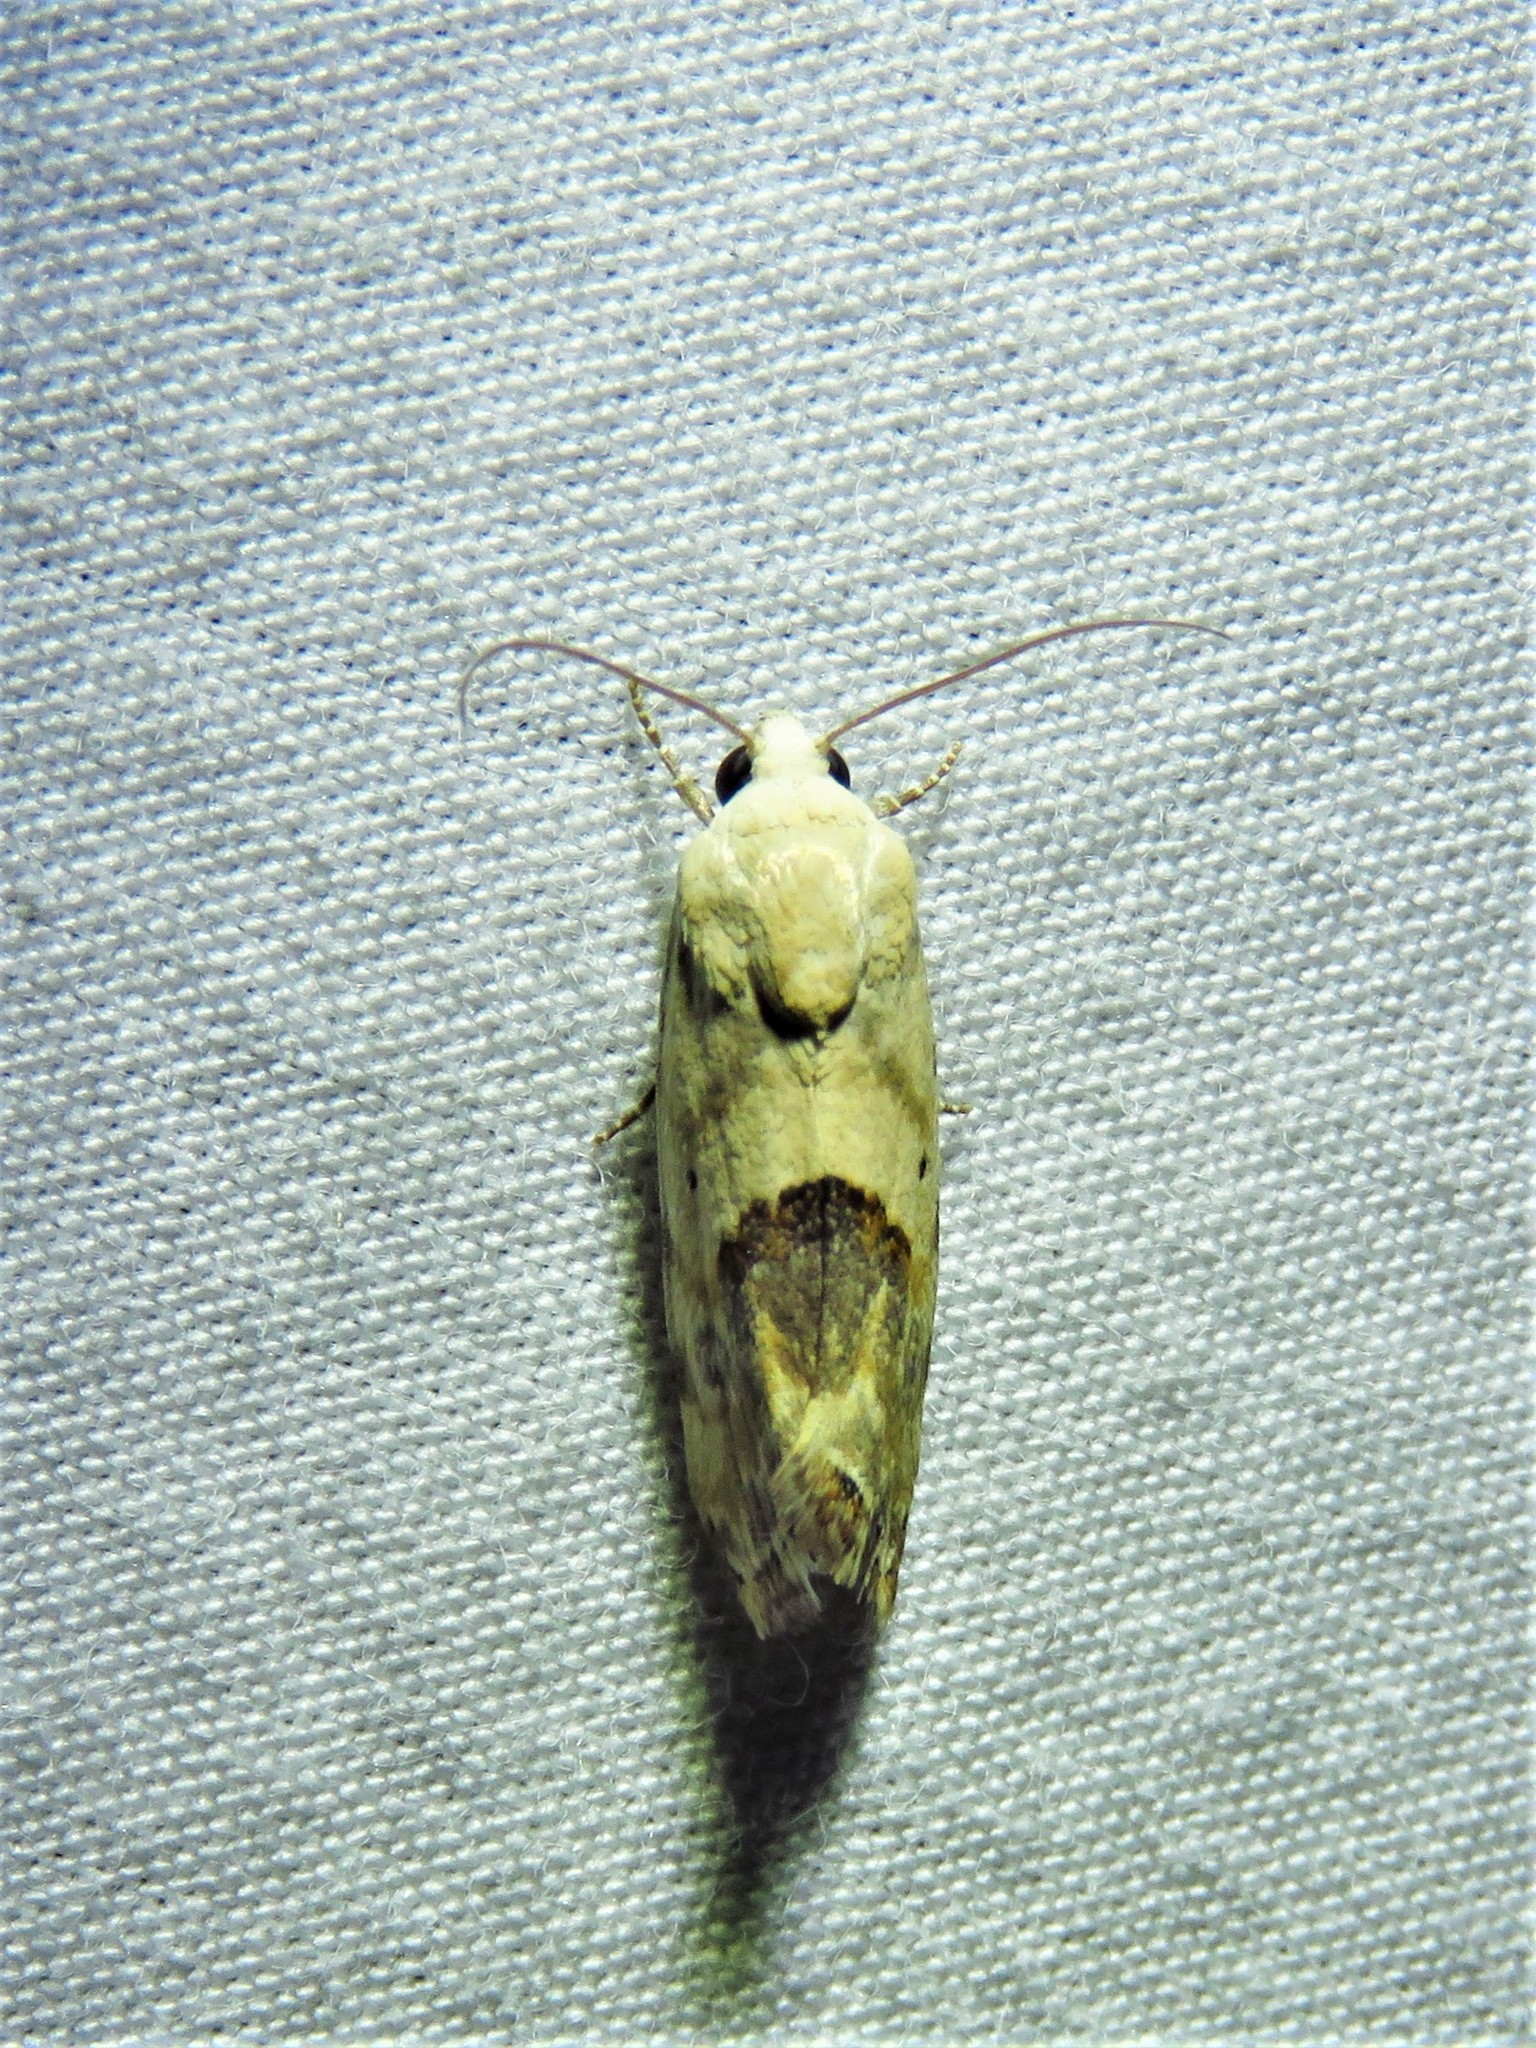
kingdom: Animalia
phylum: Arthropoda
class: Insecta
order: Lepidoptera
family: Noctuidae
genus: Acontia
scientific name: Acontia libedis
